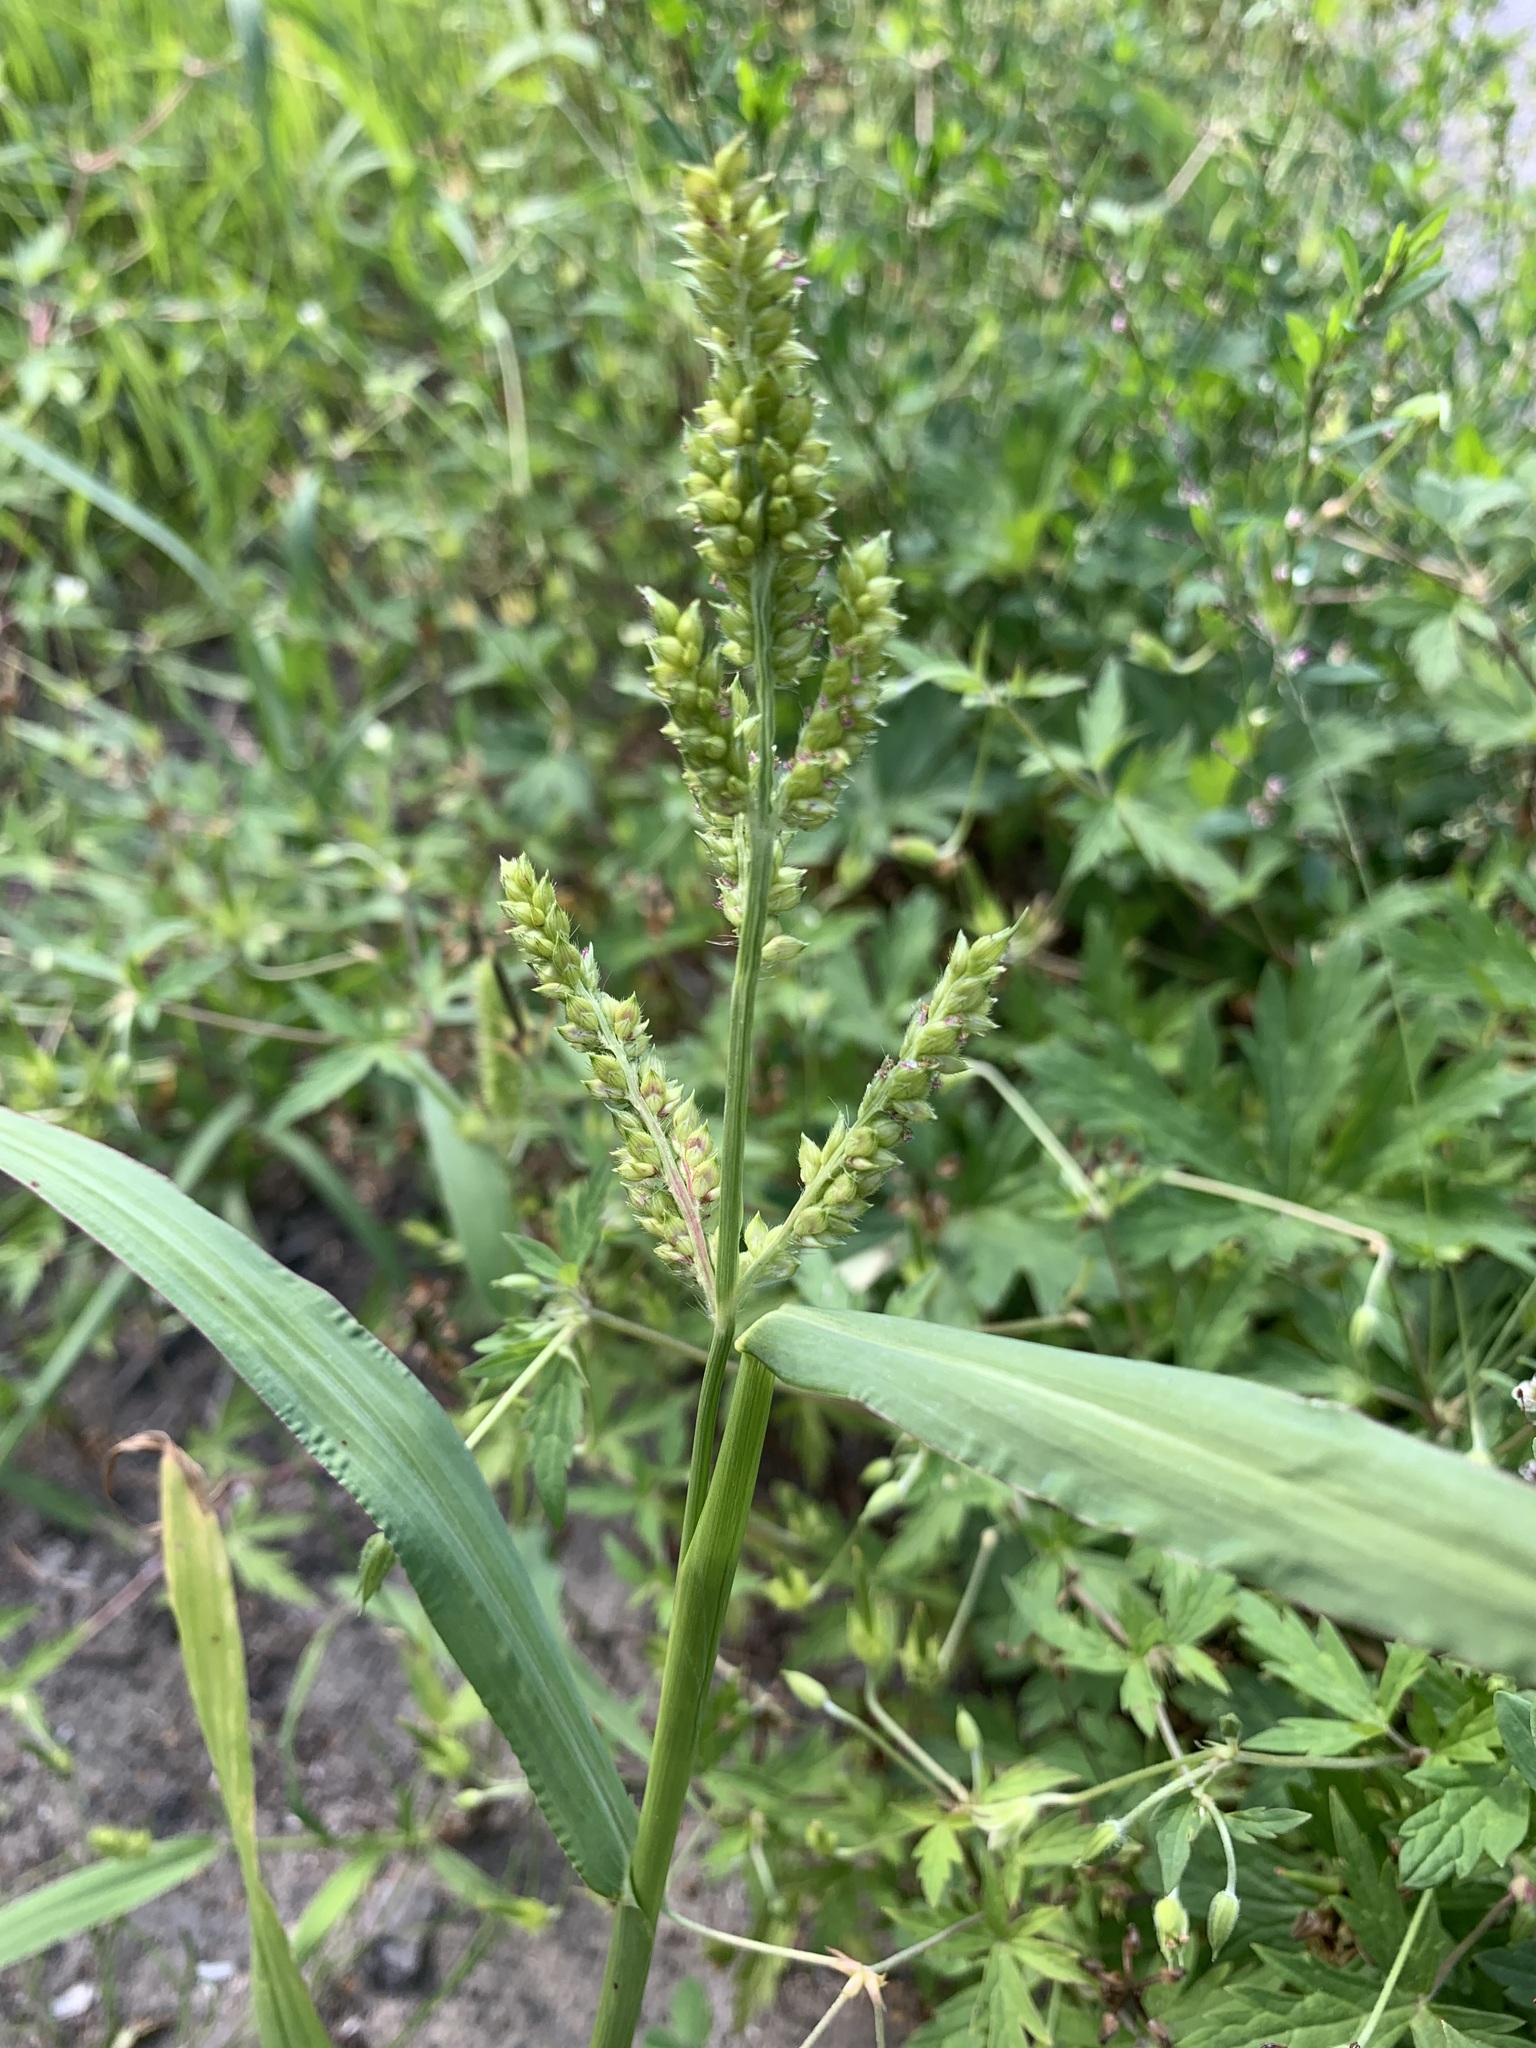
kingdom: Plantae
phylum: Tracheophyta
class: Liliopsida
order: Poales
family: Poaceae
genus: Echinochloa
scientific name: Echinochloa crus-galli
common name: Cockspur
